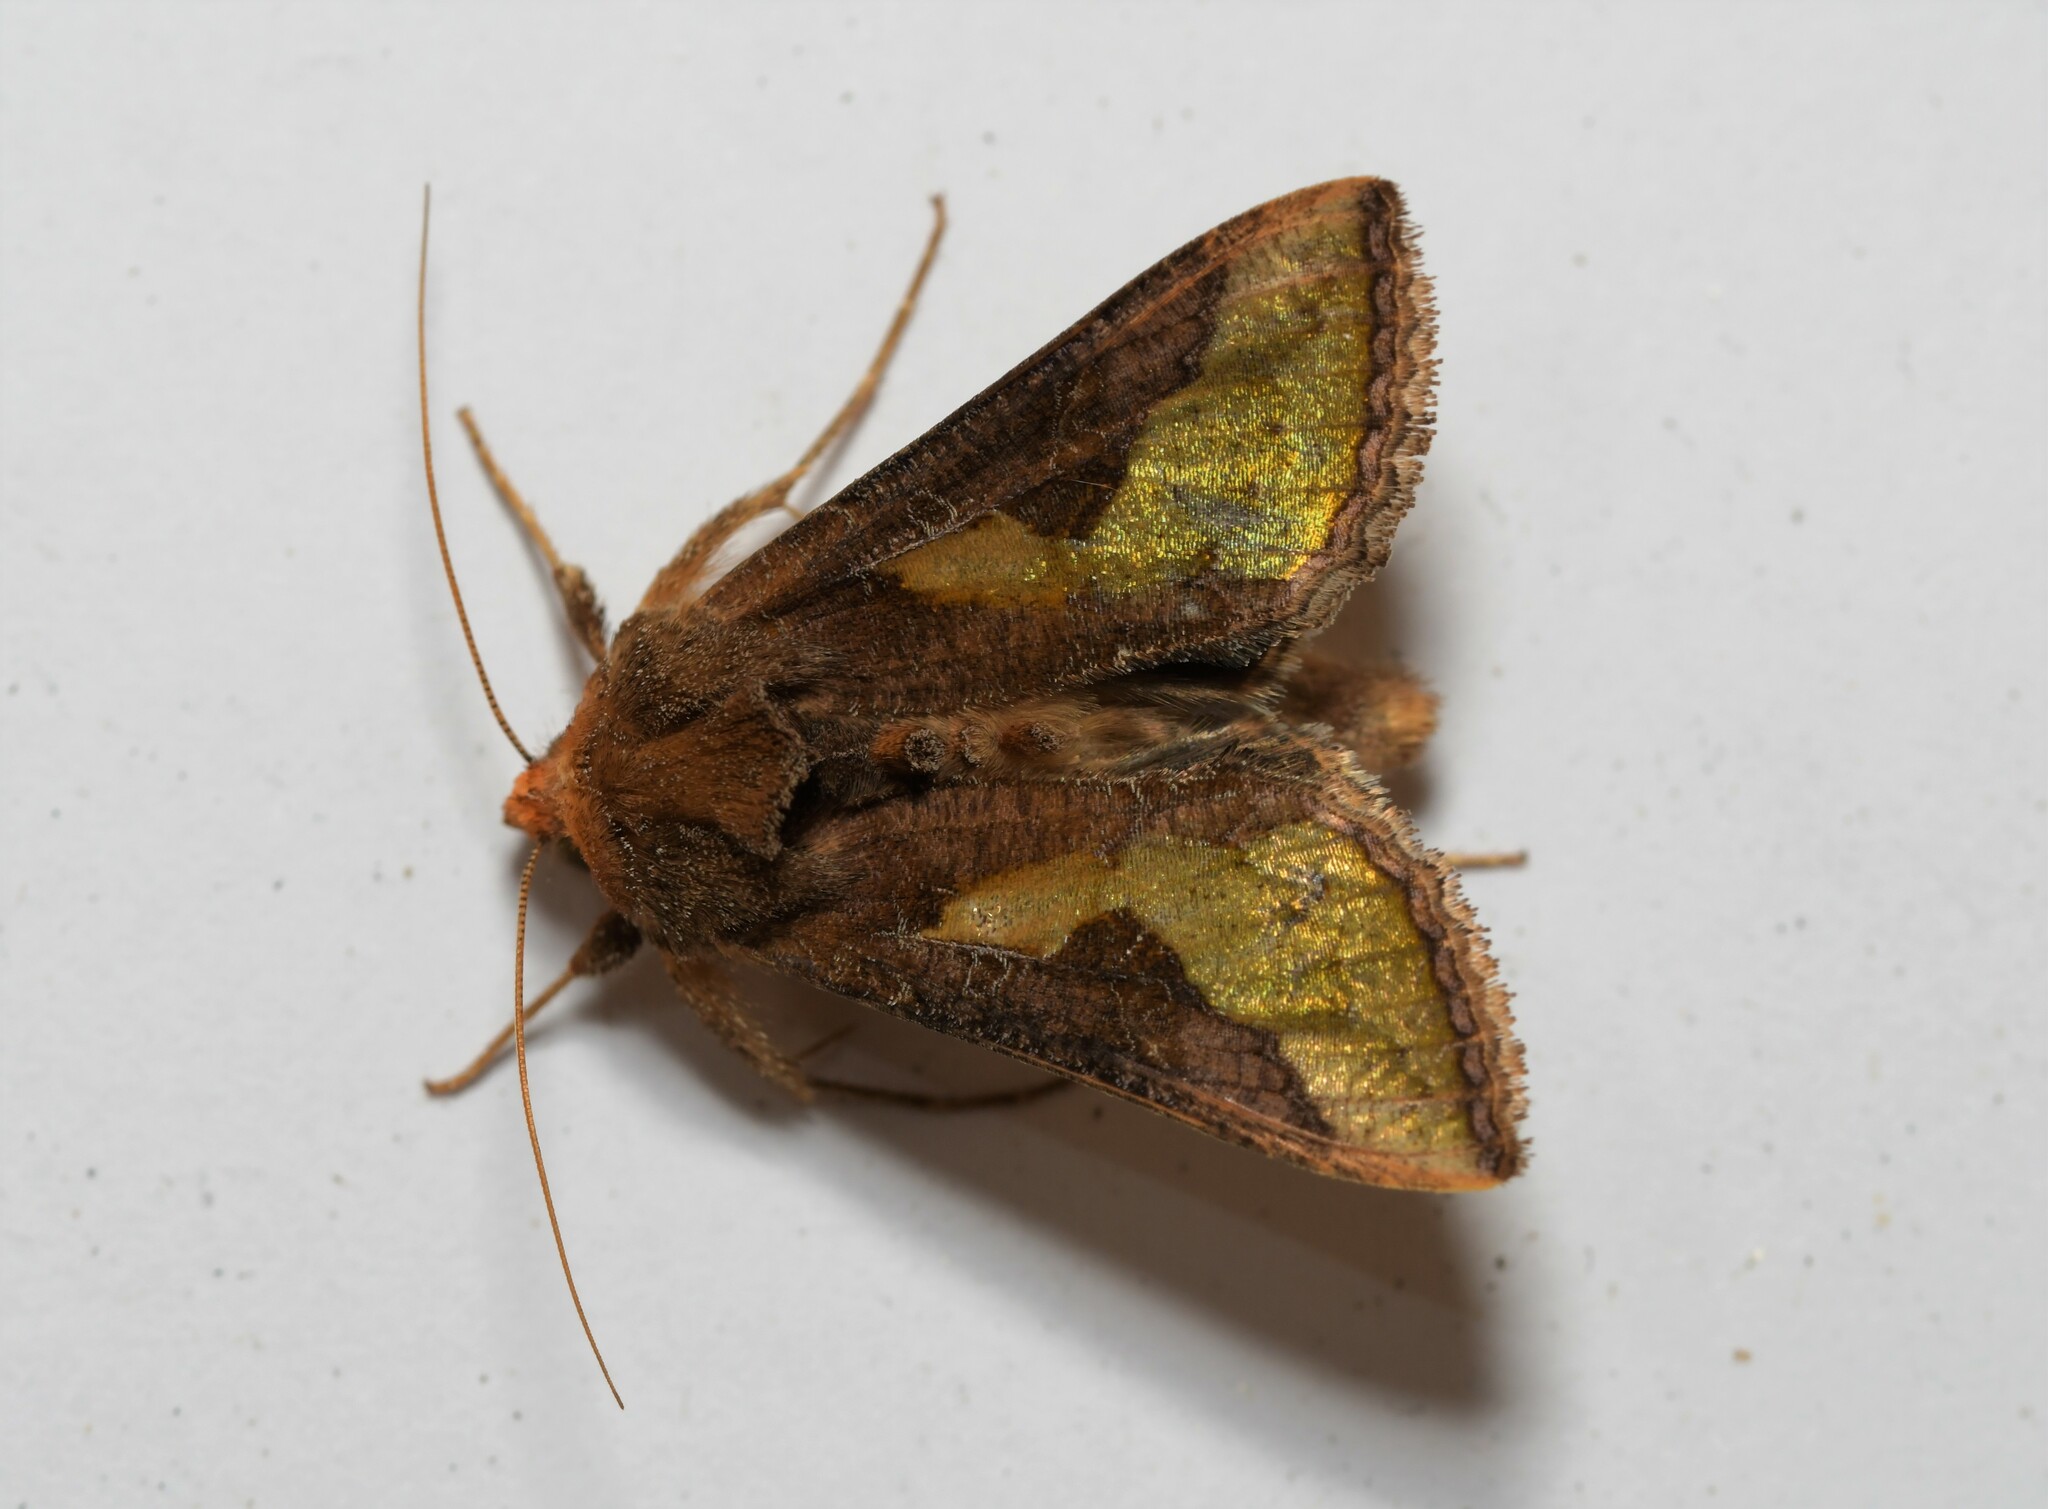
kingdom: Animalia
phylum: Arthropoda
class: Insecta
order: Lepidoptera
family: Noctuidae
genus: Thysanoplusia
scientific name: Thysanoplusia orichalcea
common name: Slender burnished brass, golden plusia
